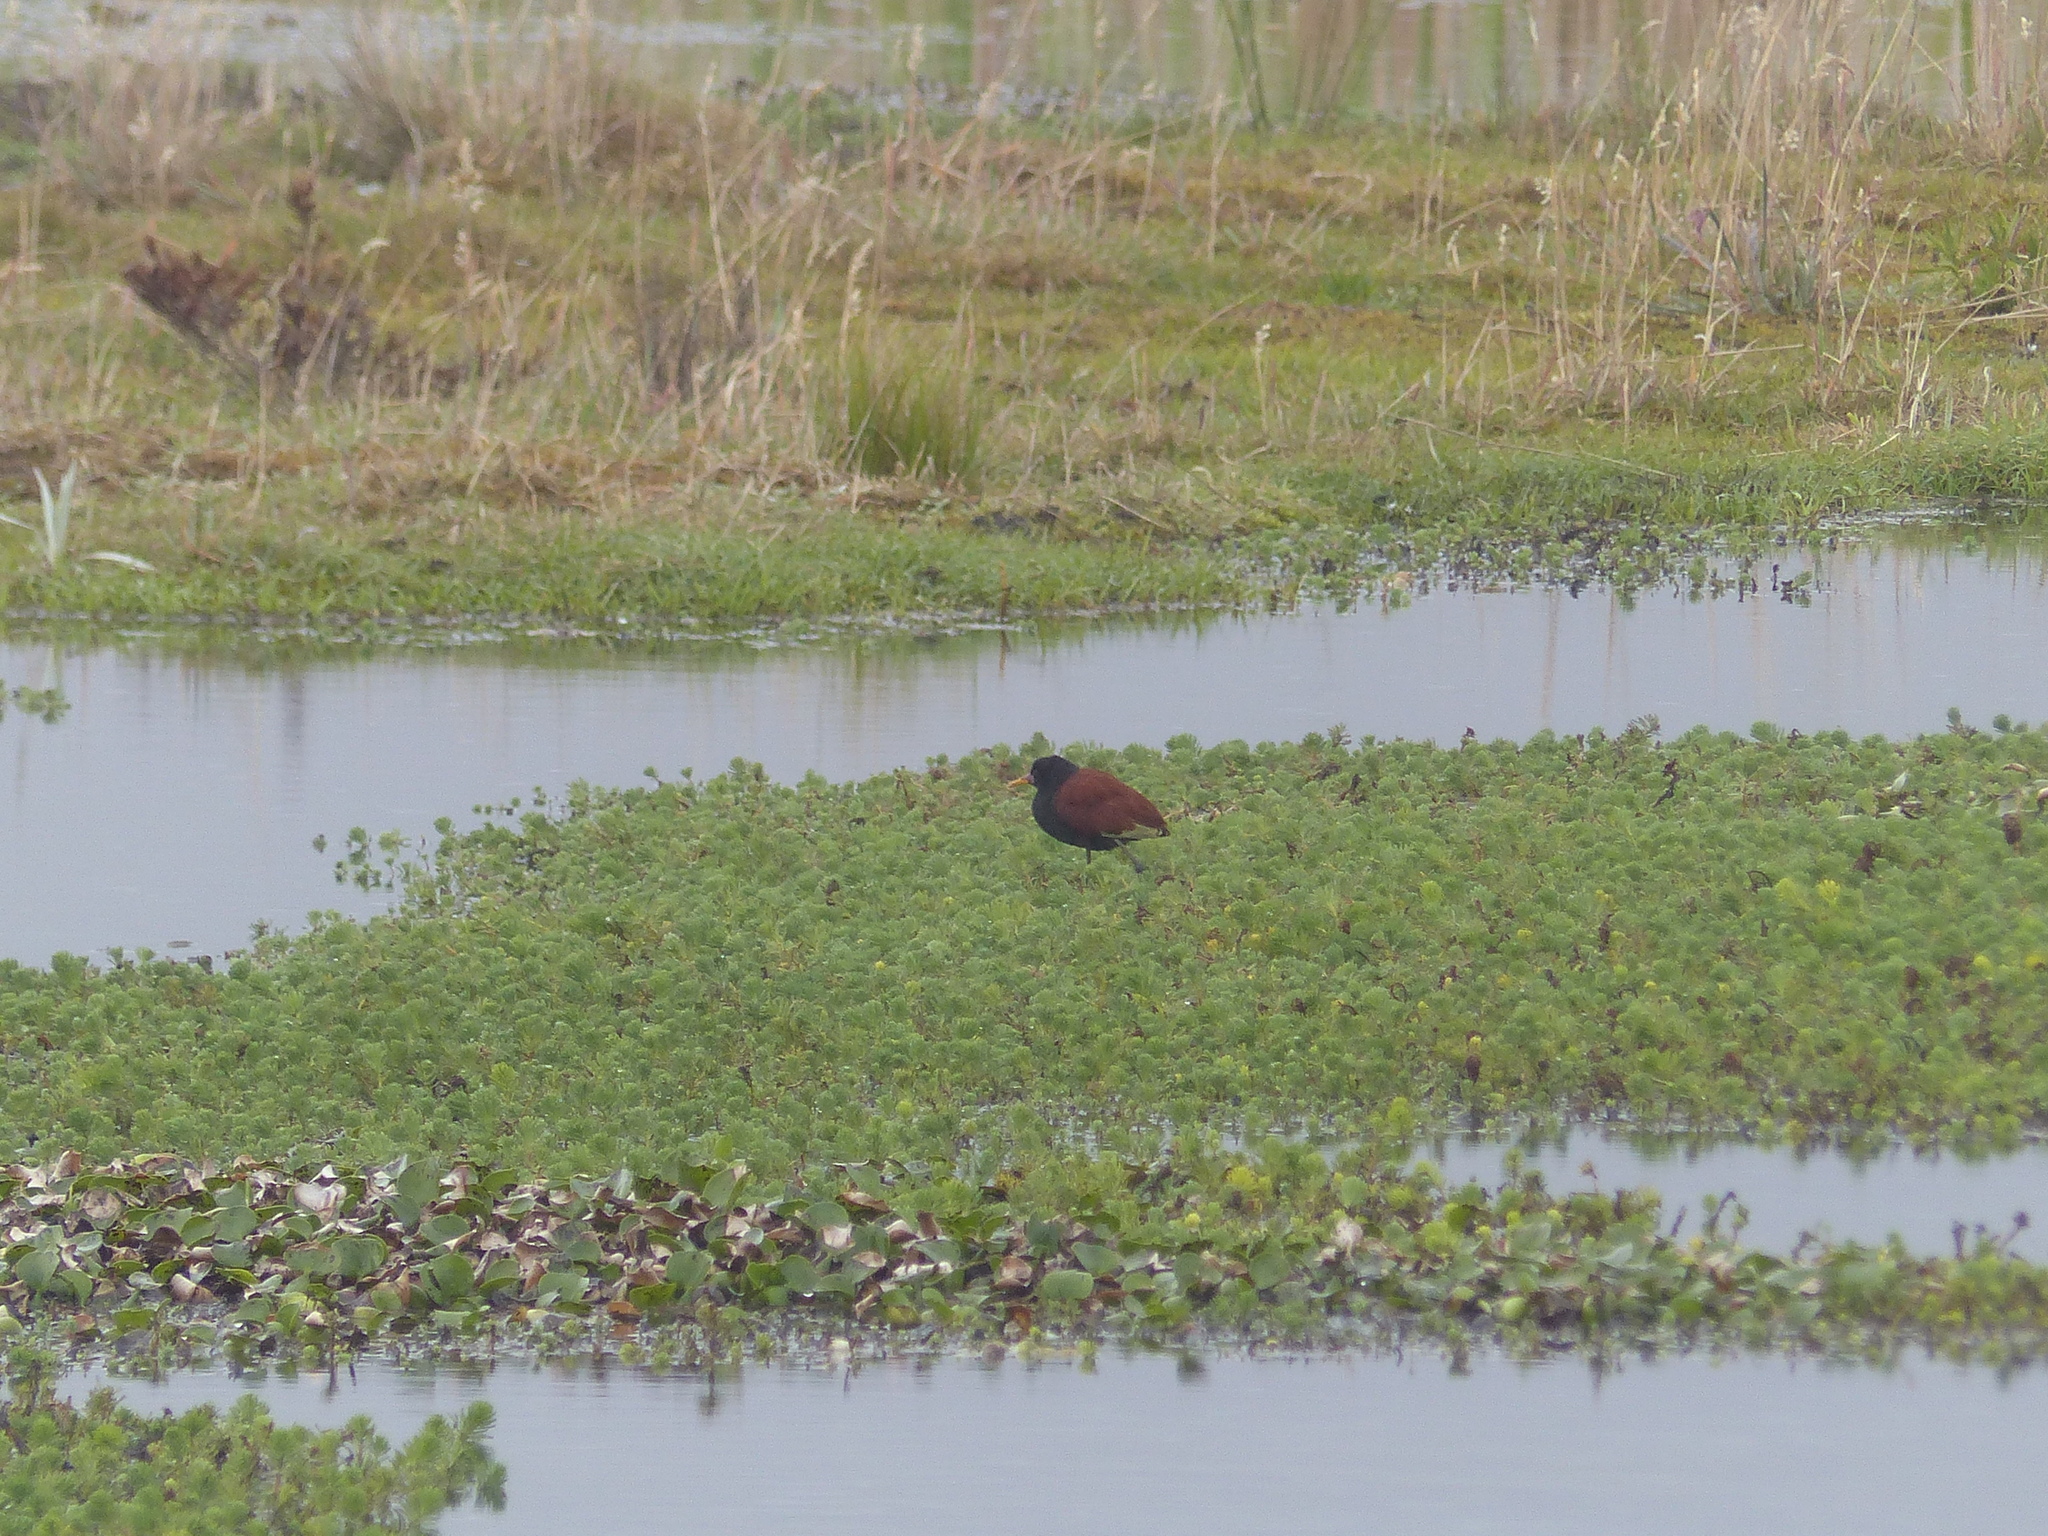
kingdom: Animalia
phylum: Chordata
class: Aves
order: Charadriiformes
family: Jacanidae
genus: Jacana
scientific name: Jacana jacana
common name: Wattled jacana
